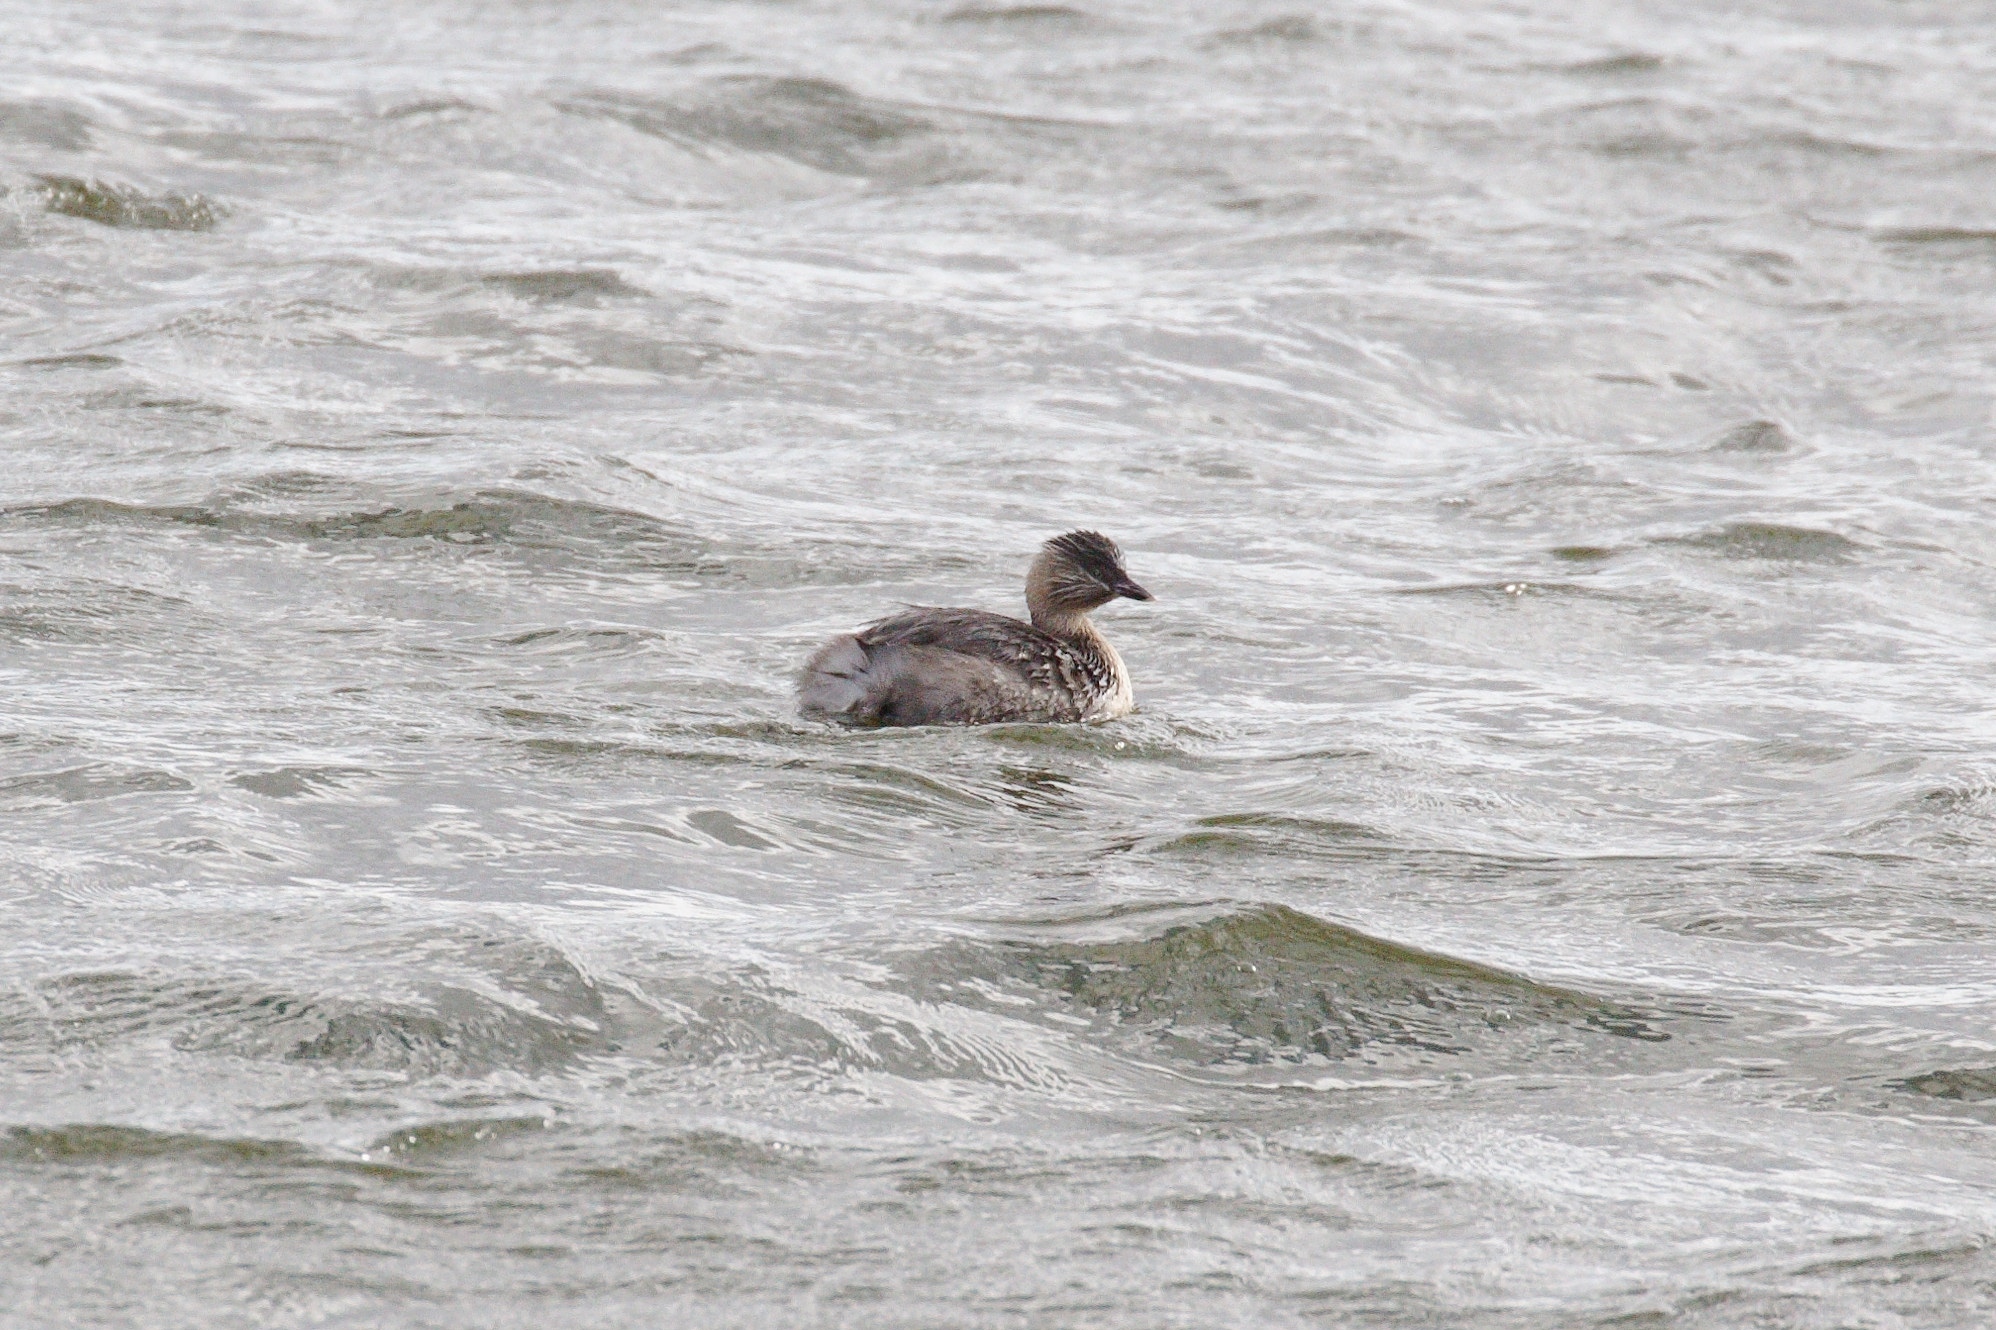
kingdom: Animalia
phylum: Chordata
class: Aves
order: Podicipediformes
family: Podicipedidae
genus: Poliocephalus
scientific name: Poliocephalus poliocephalus
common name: Hoary-headed grebe
